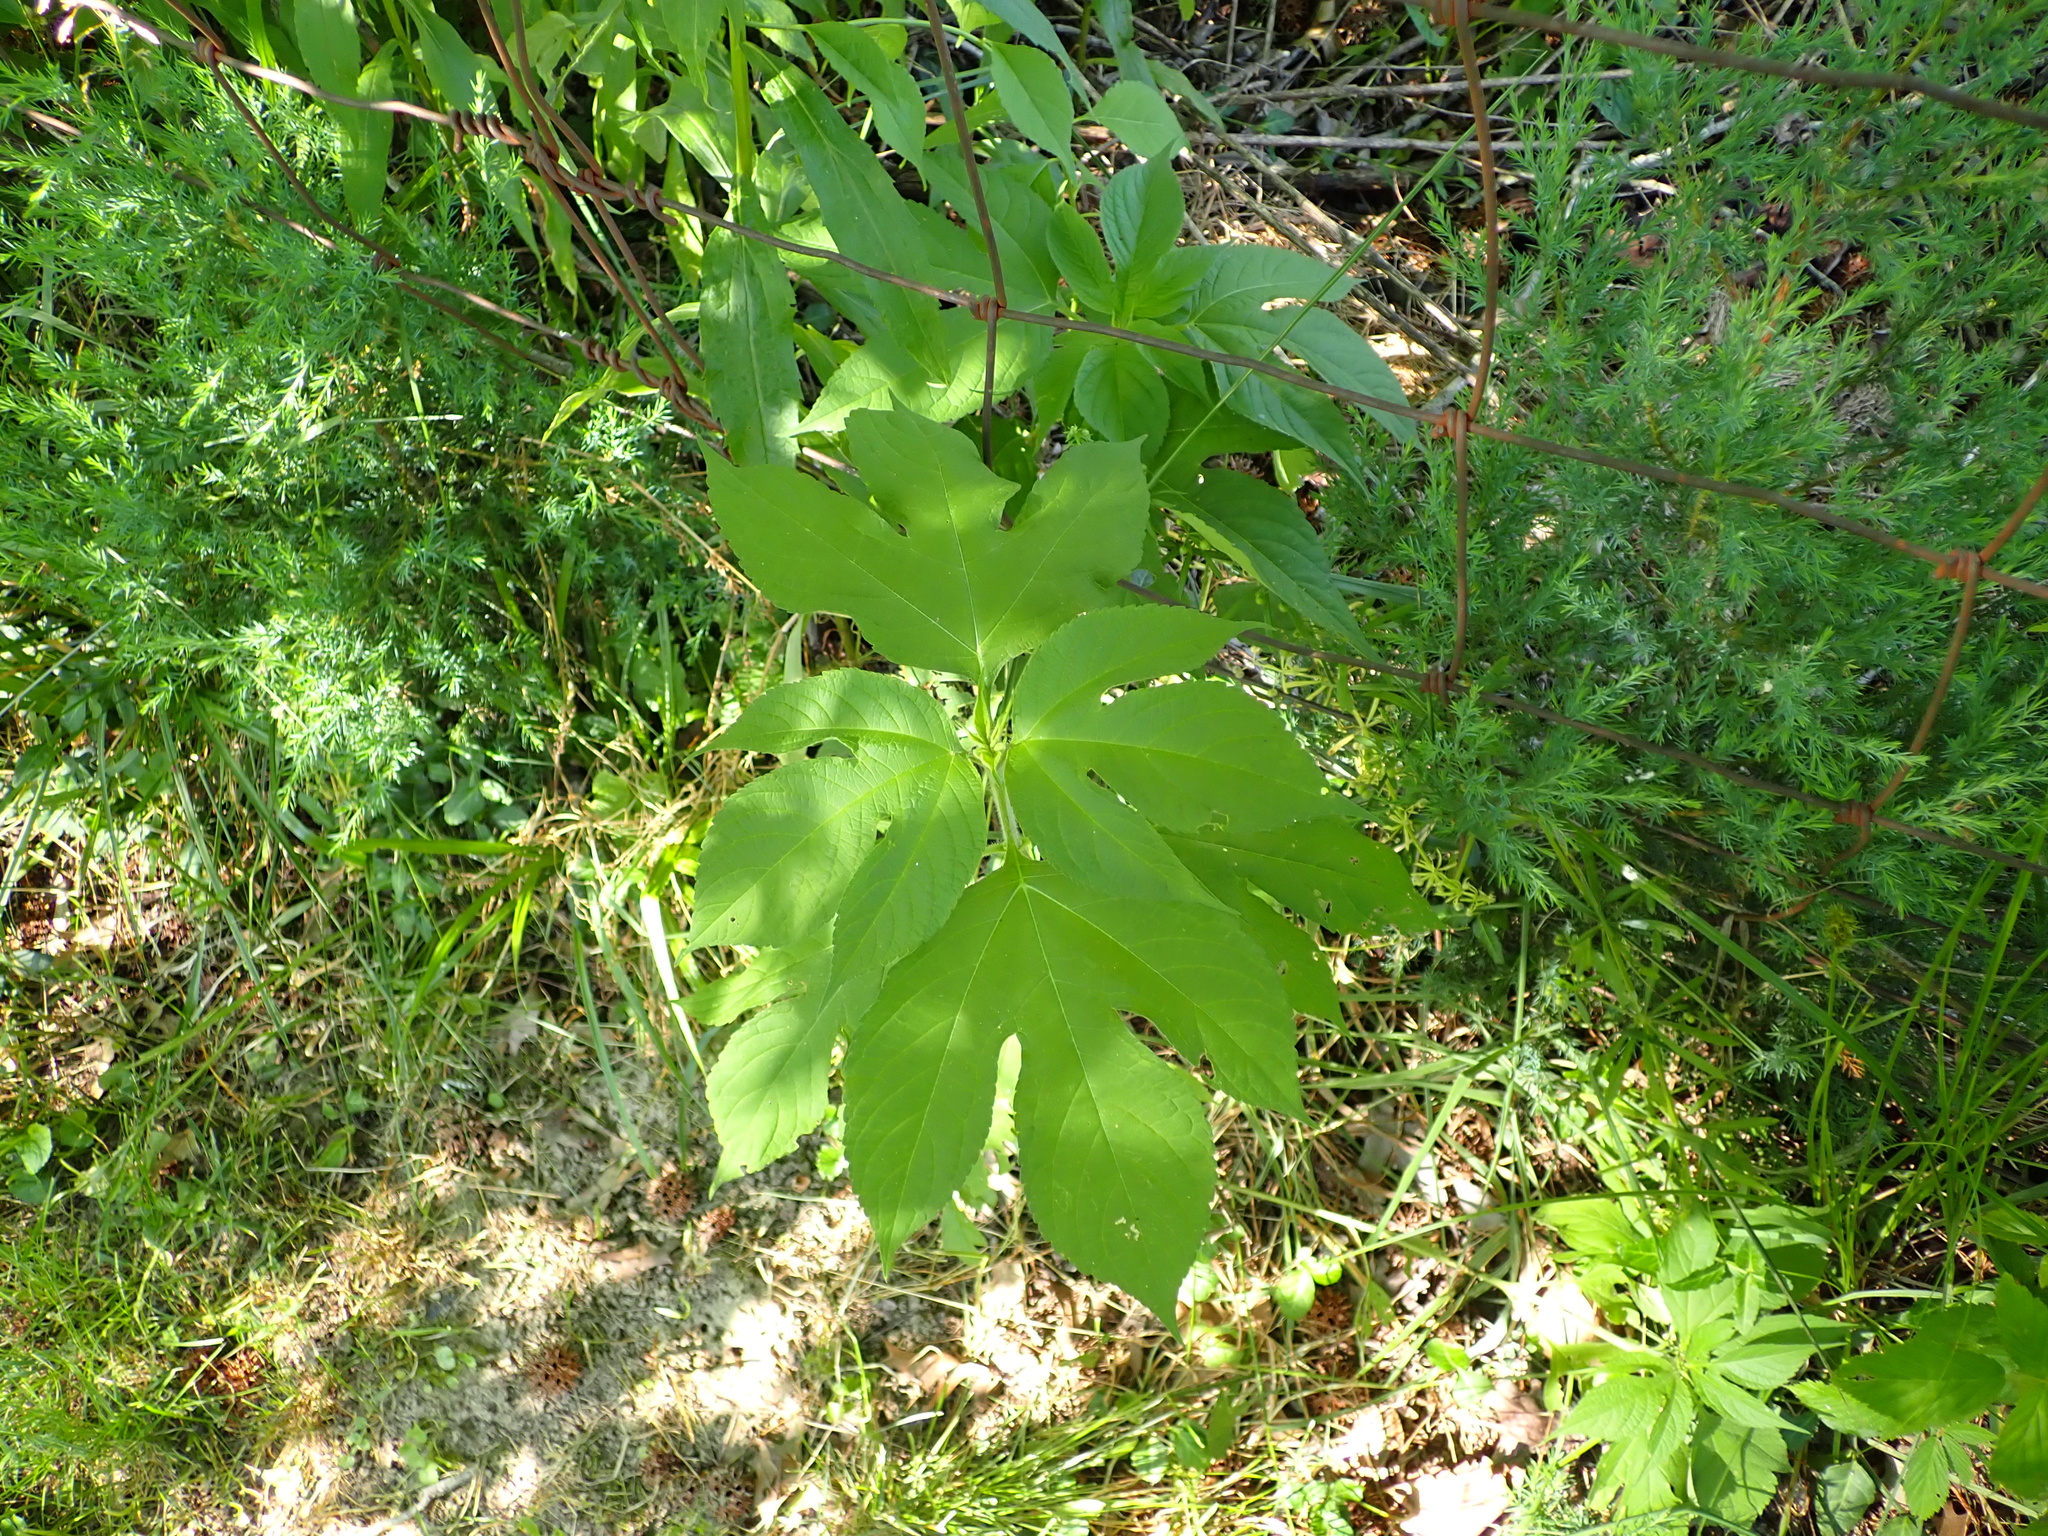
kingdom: Plantae
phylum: Tracheophyta
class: Magnoliopsida
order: Asterales
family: Asteraceae
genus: Ambrosia
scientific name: Ambrosia trifida
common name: Giant ragweed
